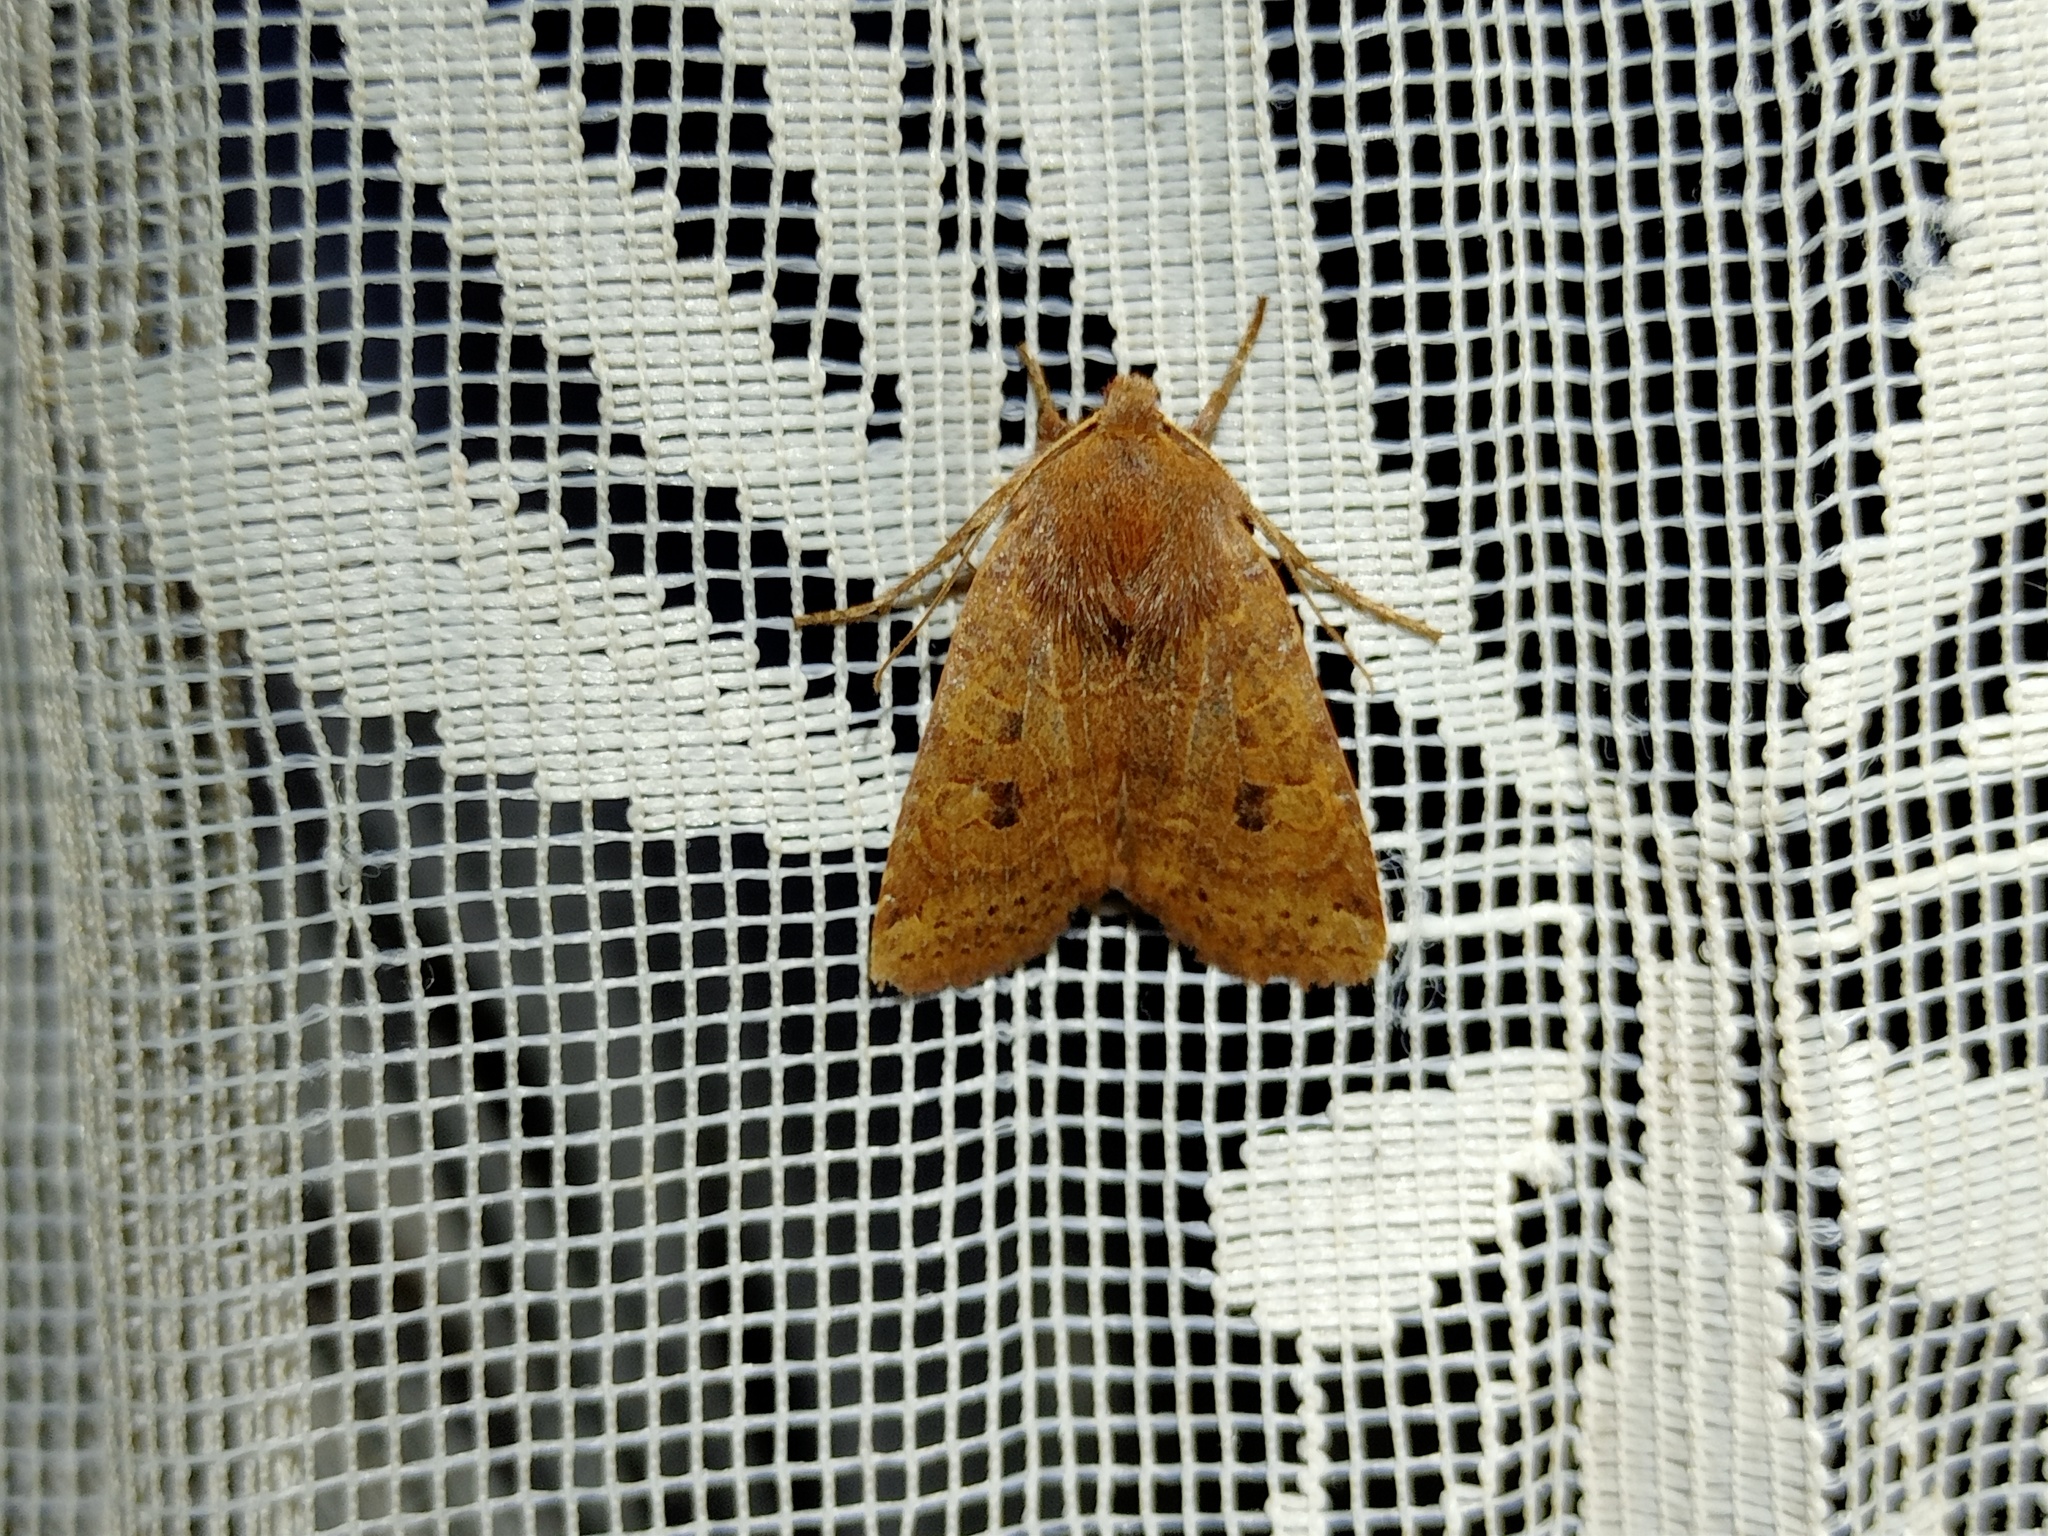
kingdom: Animalia
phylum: Arthropoda
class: Insecta
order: Lepidoptera
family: Noctuidae
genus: Conistra
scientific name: Conistra vaccinii
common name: Chestnut
